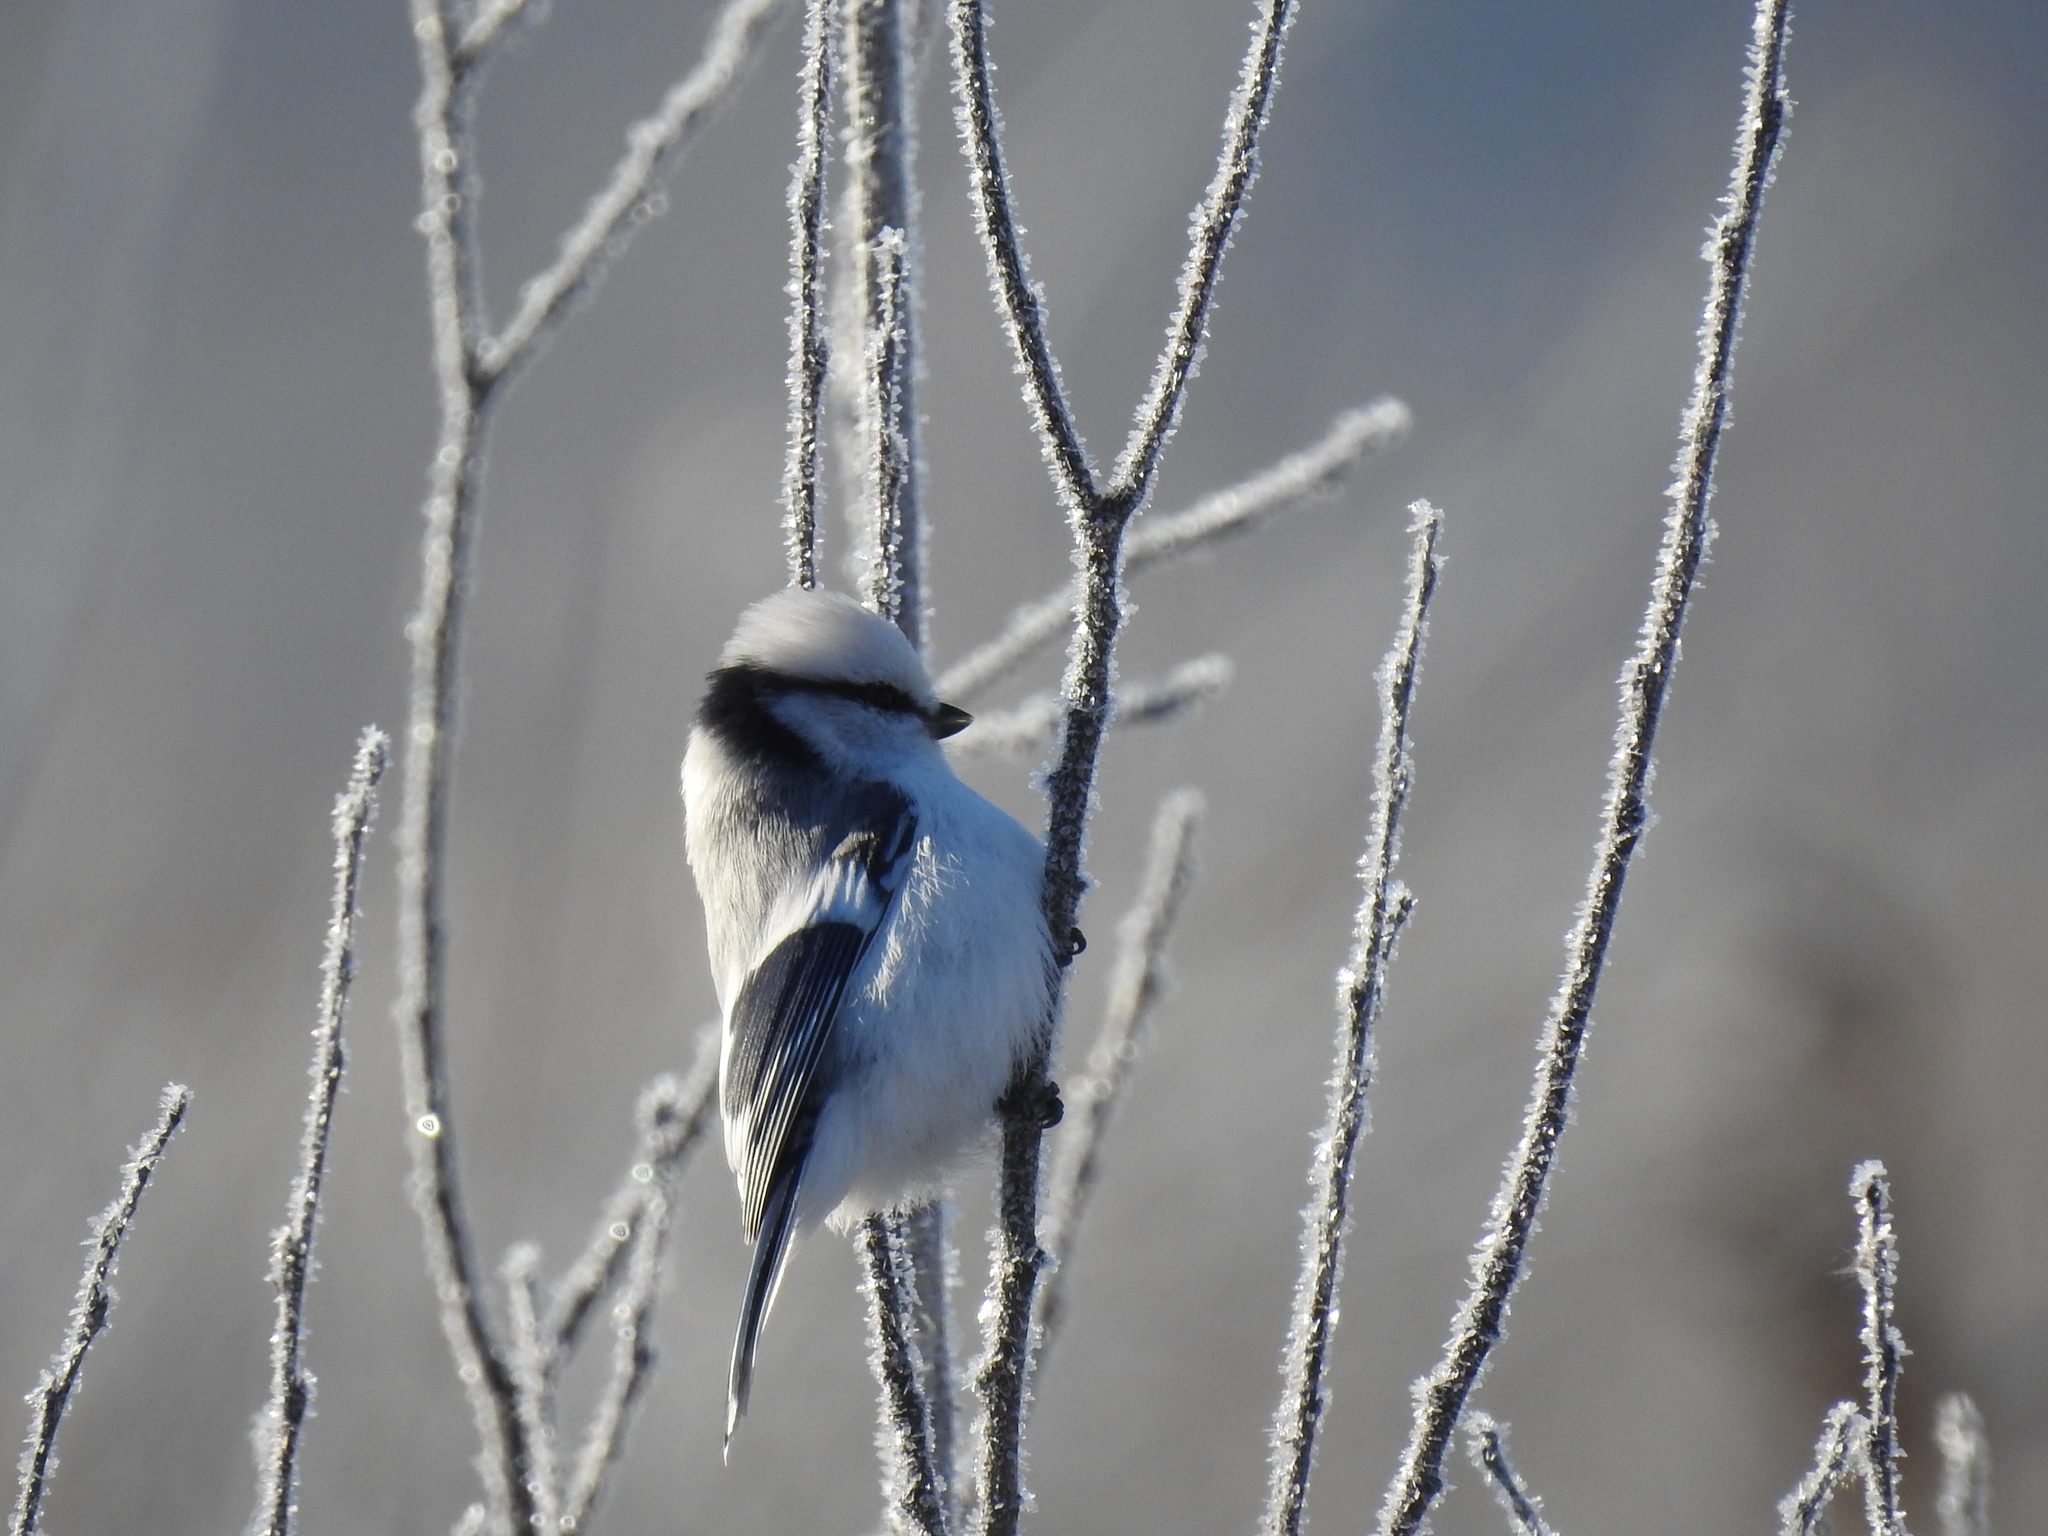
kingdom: Animalia
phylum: Chordata
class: Aves
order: Passeriformes
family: Paridae
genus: Cyanistes
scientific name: Cyanistes cyanus
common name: Azure tit
